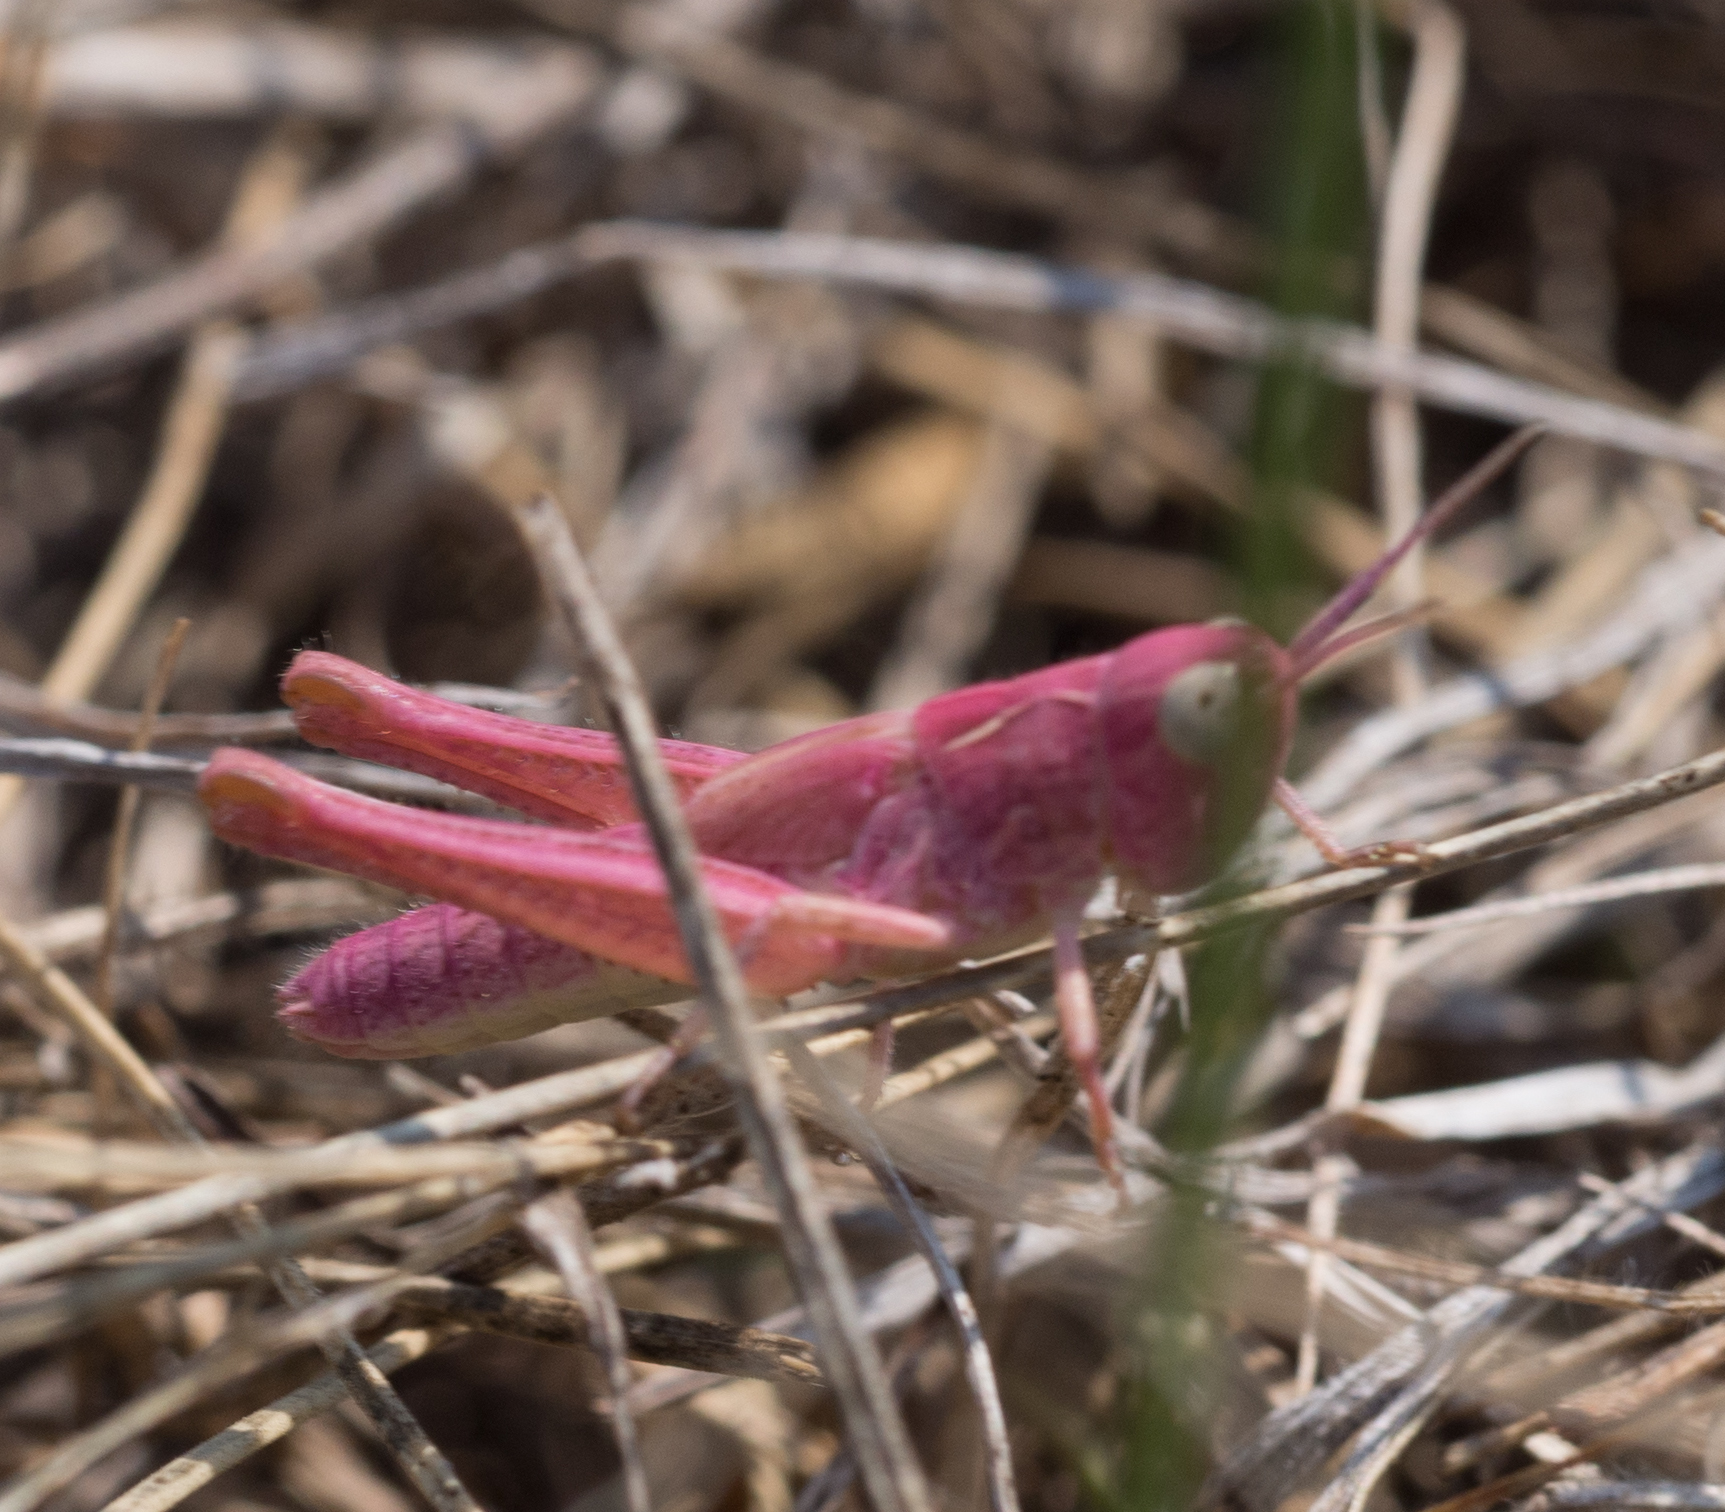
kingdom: Animalia
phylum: Arthropoda
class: Insecta
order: Orthoptera
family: Acrididae
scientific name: Acrididae
